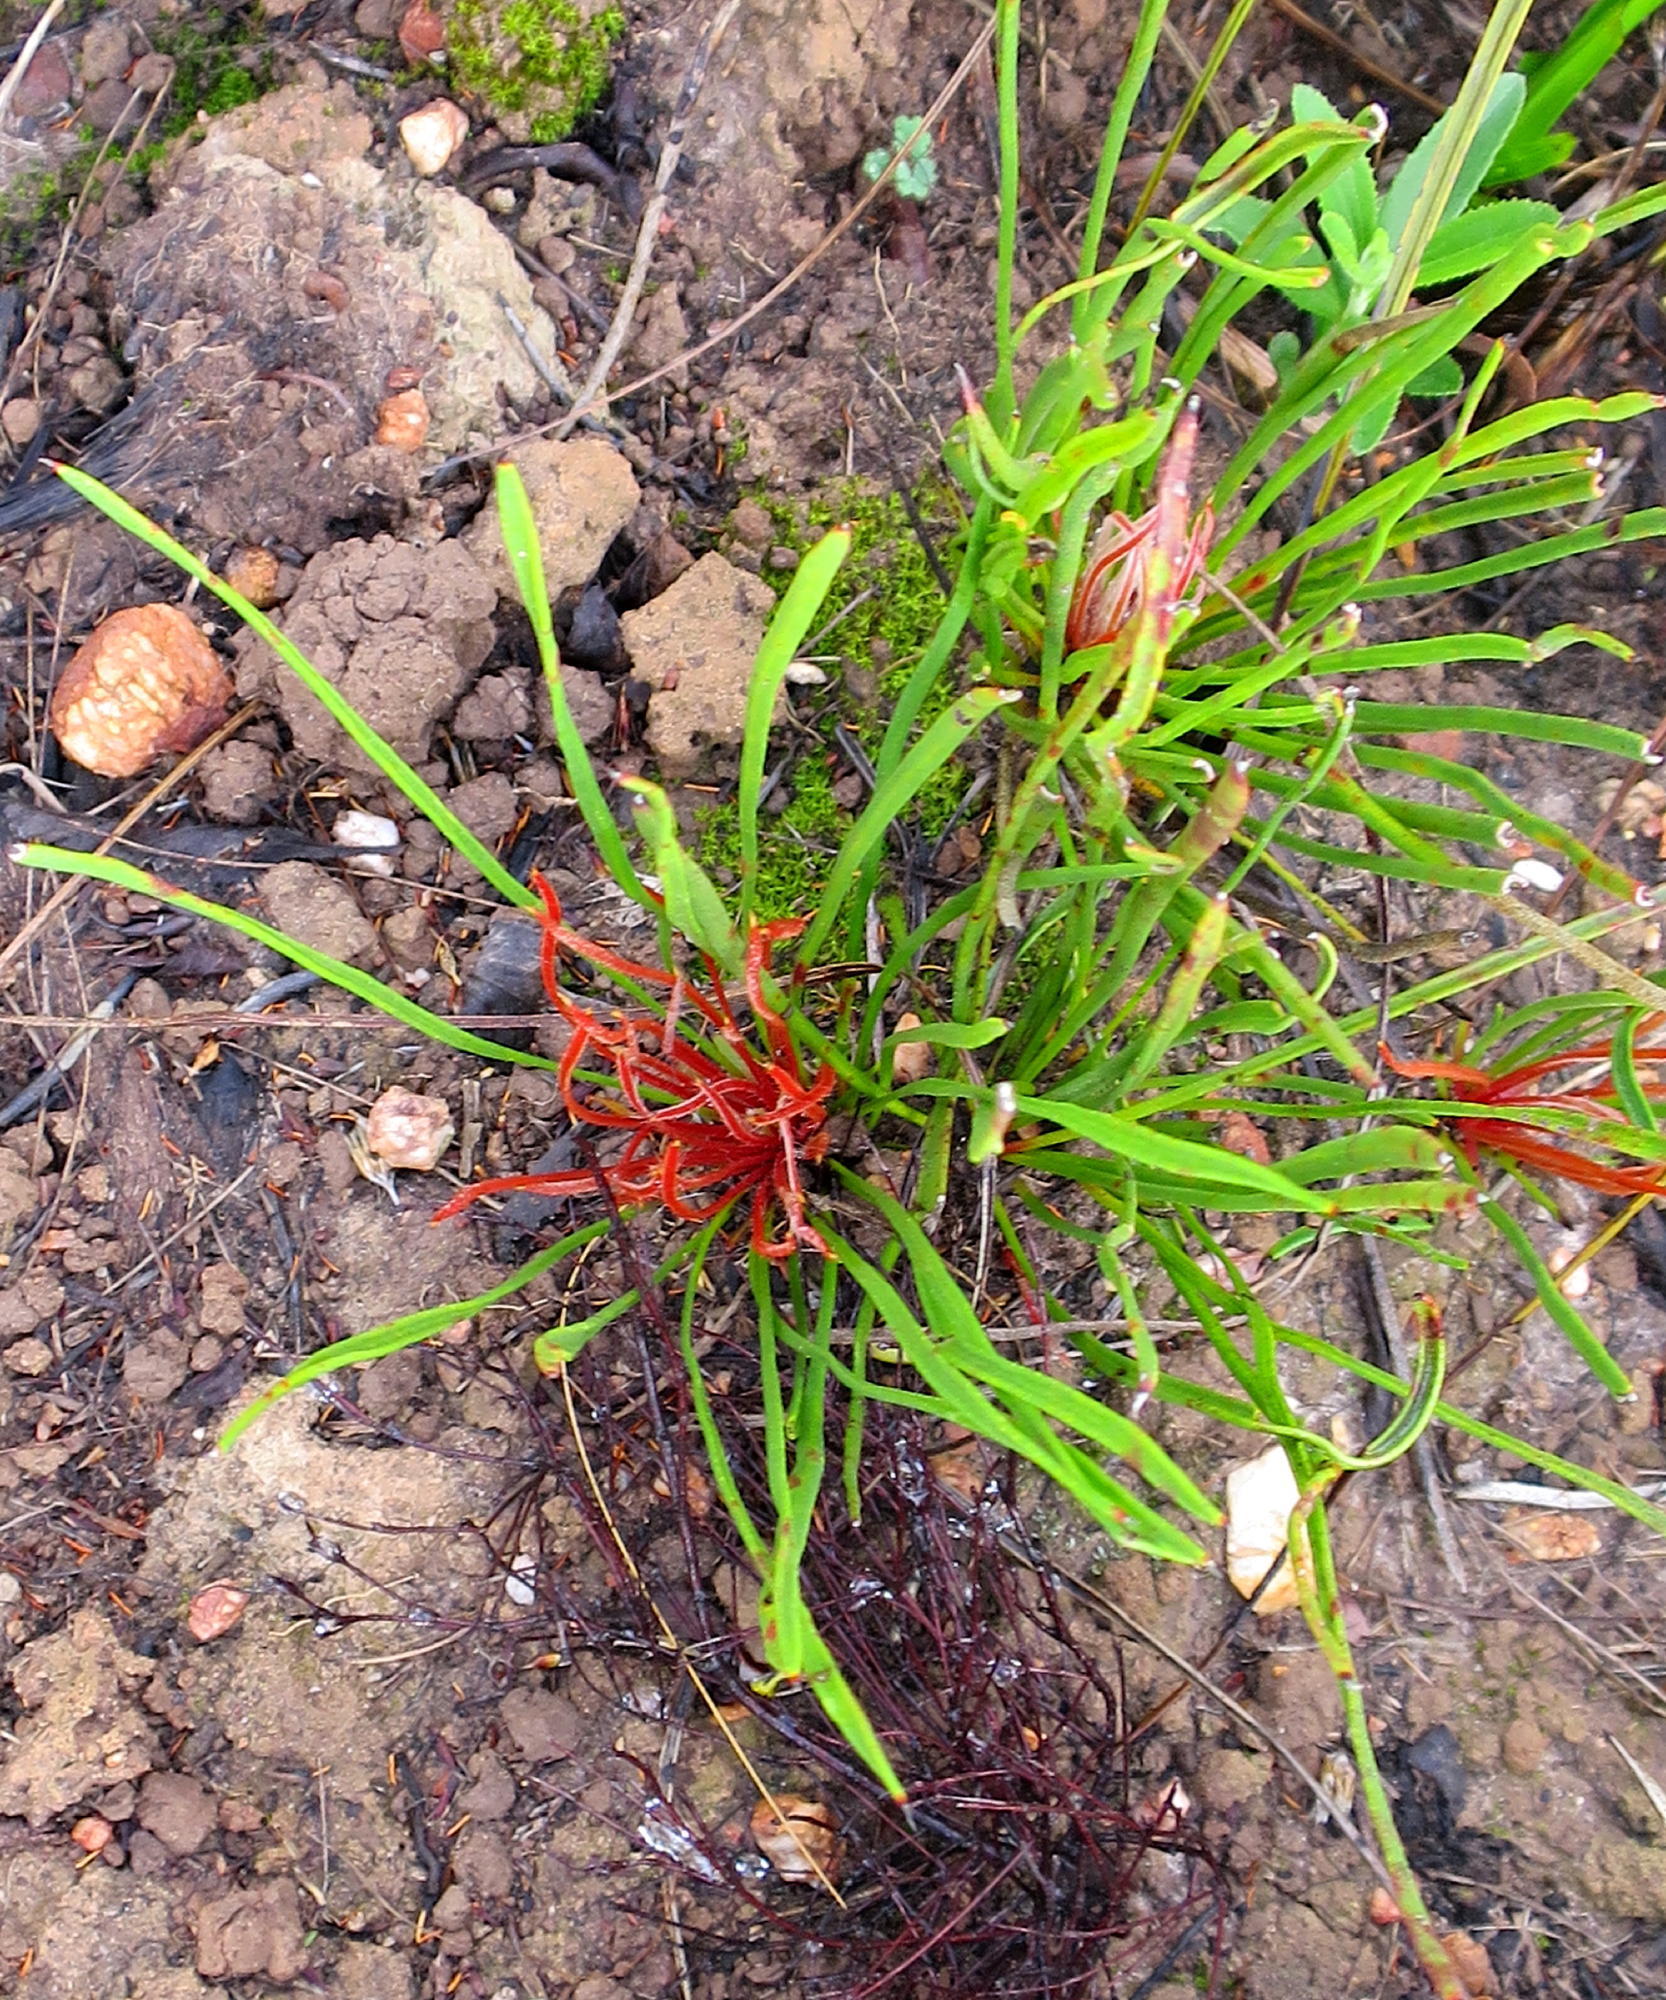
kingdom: Plantae
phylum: Tracheophyta
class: Magnoliopsida
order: Proteales
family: Proteaceae
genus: Protea
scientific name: Protea piscina
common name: Visgat sugarbush
